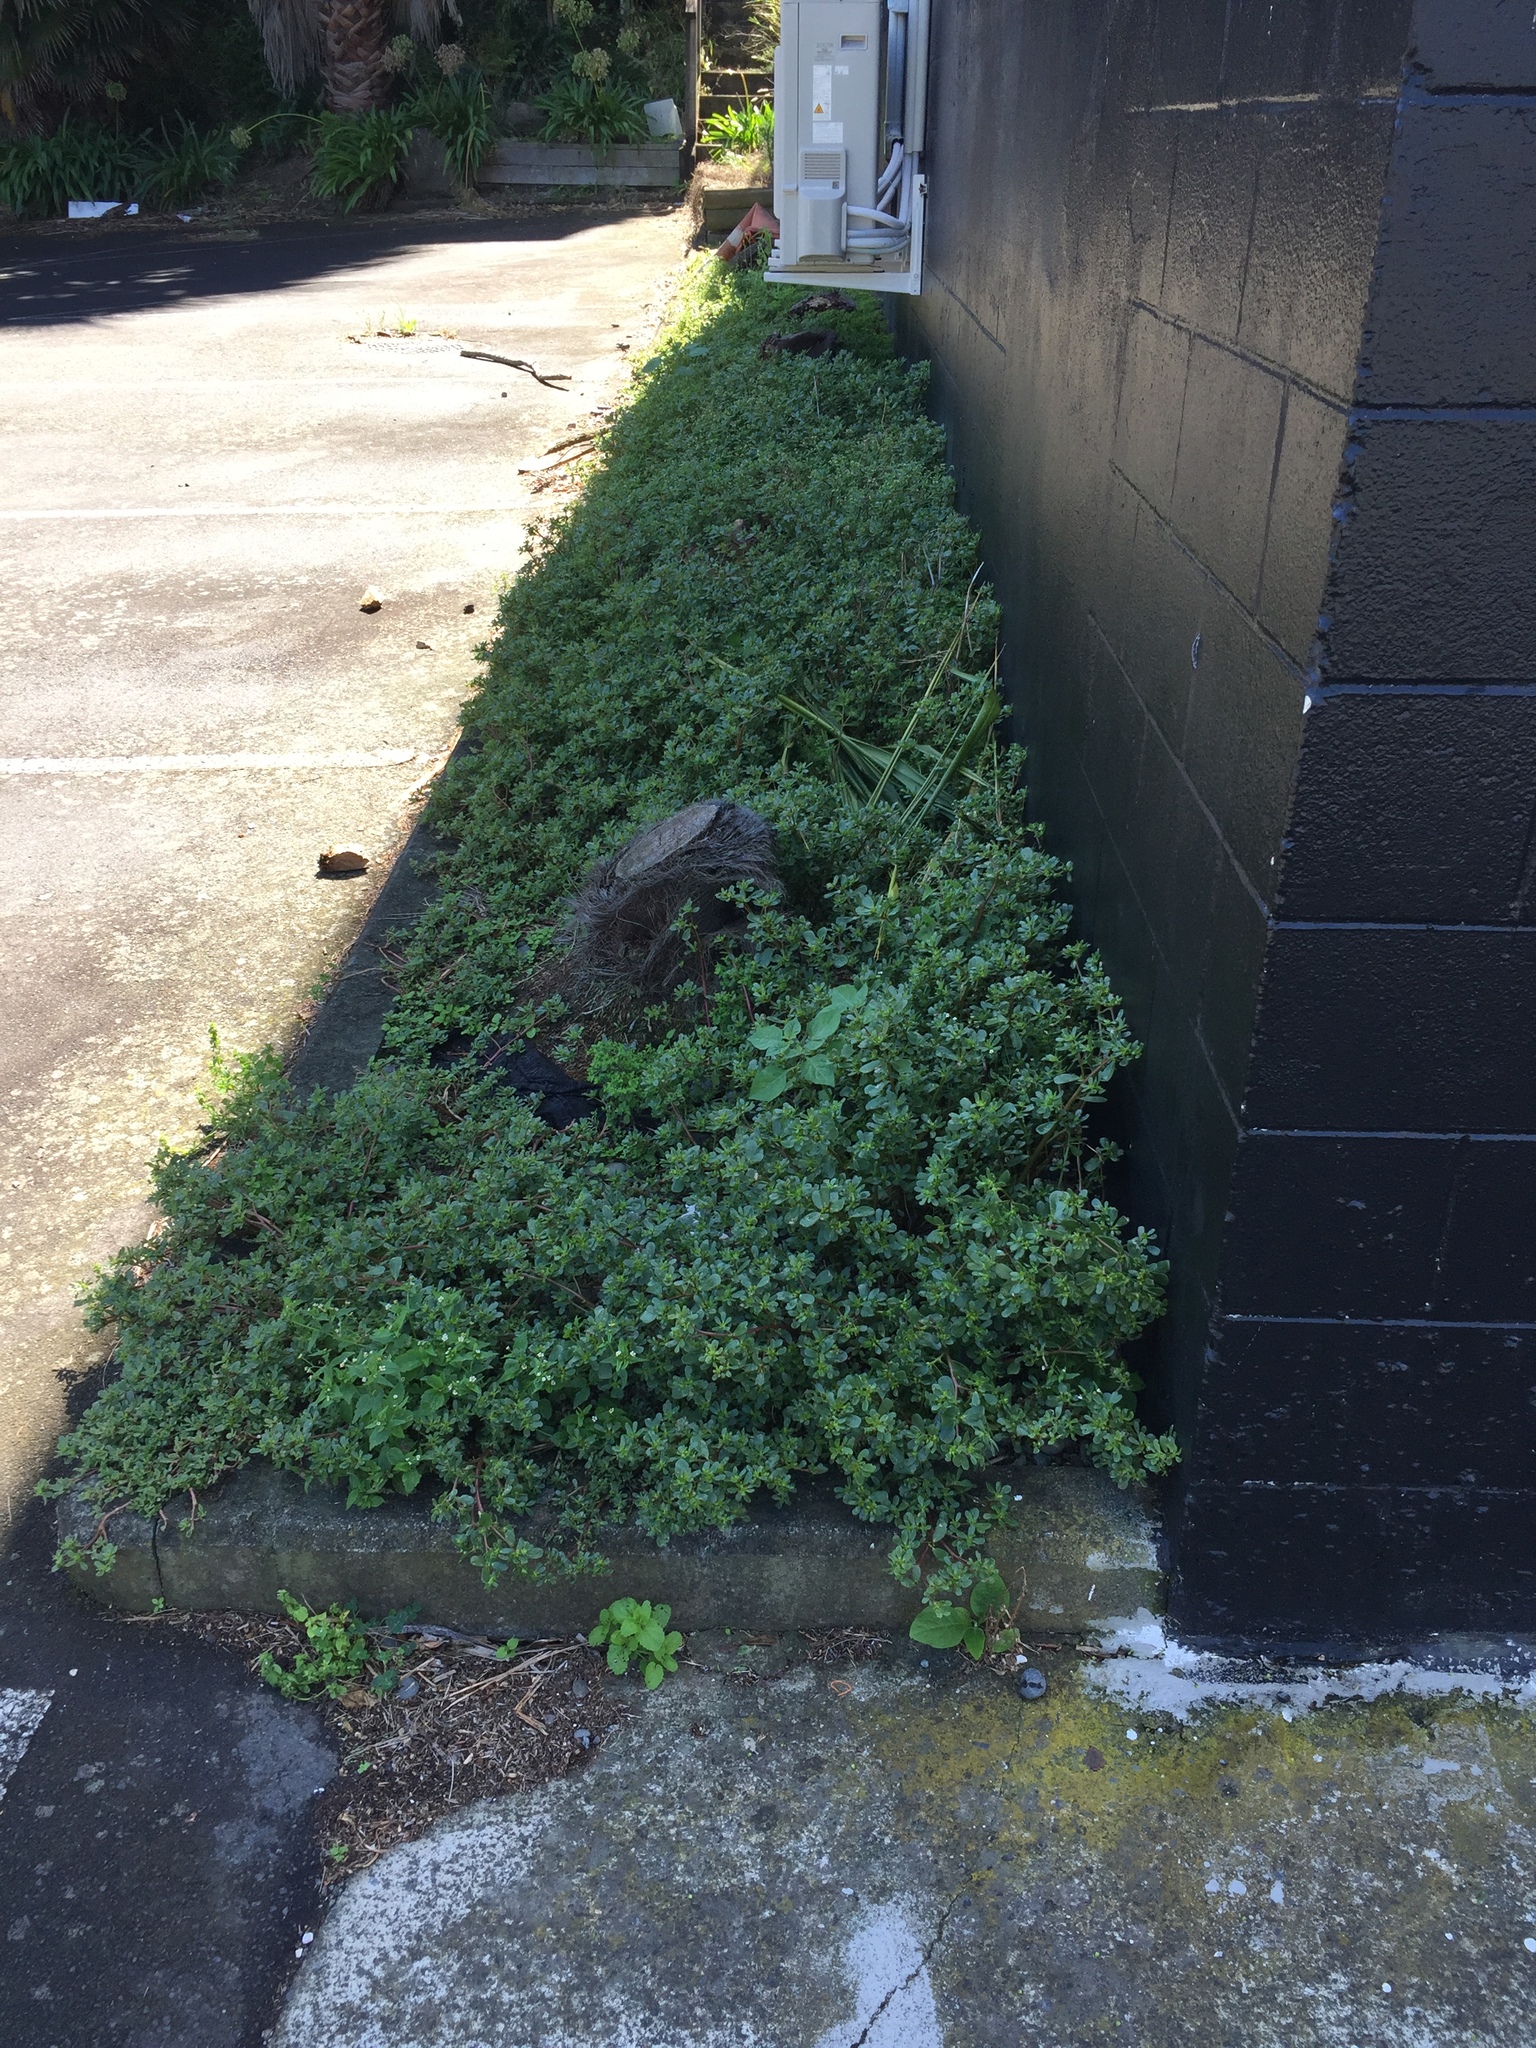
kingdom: Animalia
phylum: Arthropoda
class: Insecta
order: Coleoptera
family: Curculionidae
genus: Hypurus
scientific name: Hypurus bertrandi
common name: Weevil
